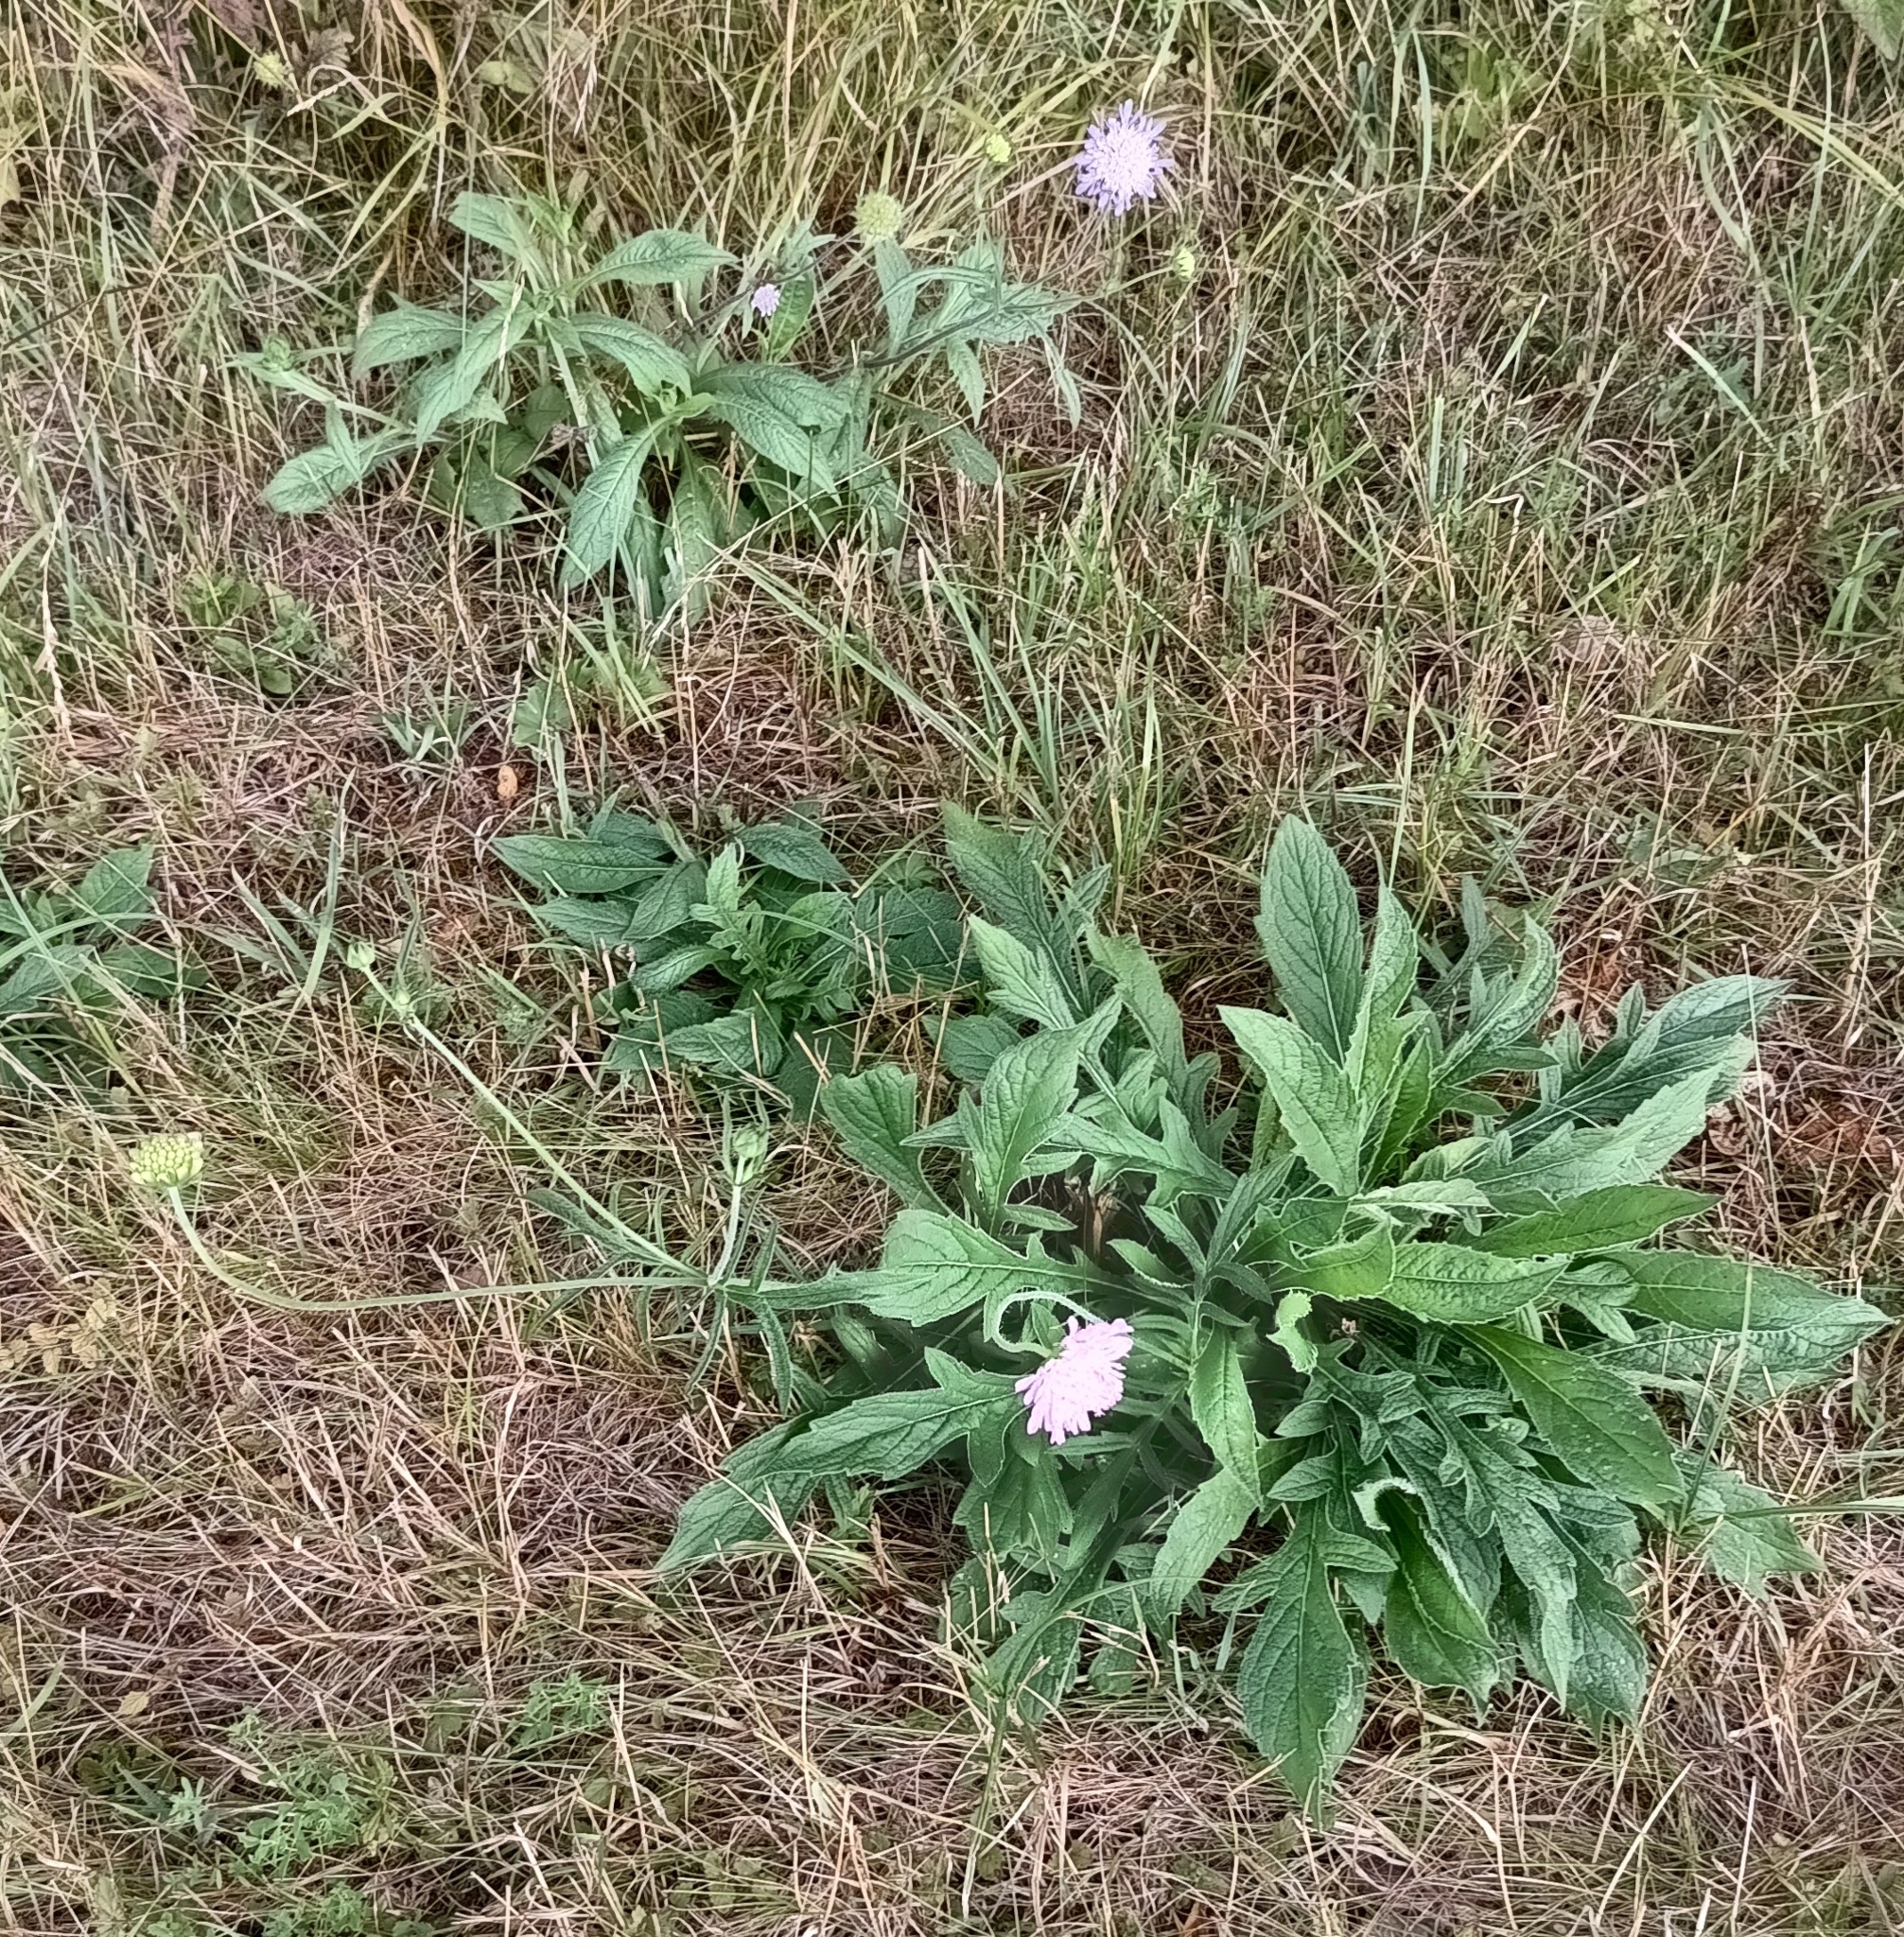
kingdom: Plantae
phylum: Tracheophyta
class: Magnoliopsida
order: Dipsacales
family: Caprifoliaceae
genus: Knautia
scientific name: Knautia arvensis
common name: Field scabiosa
